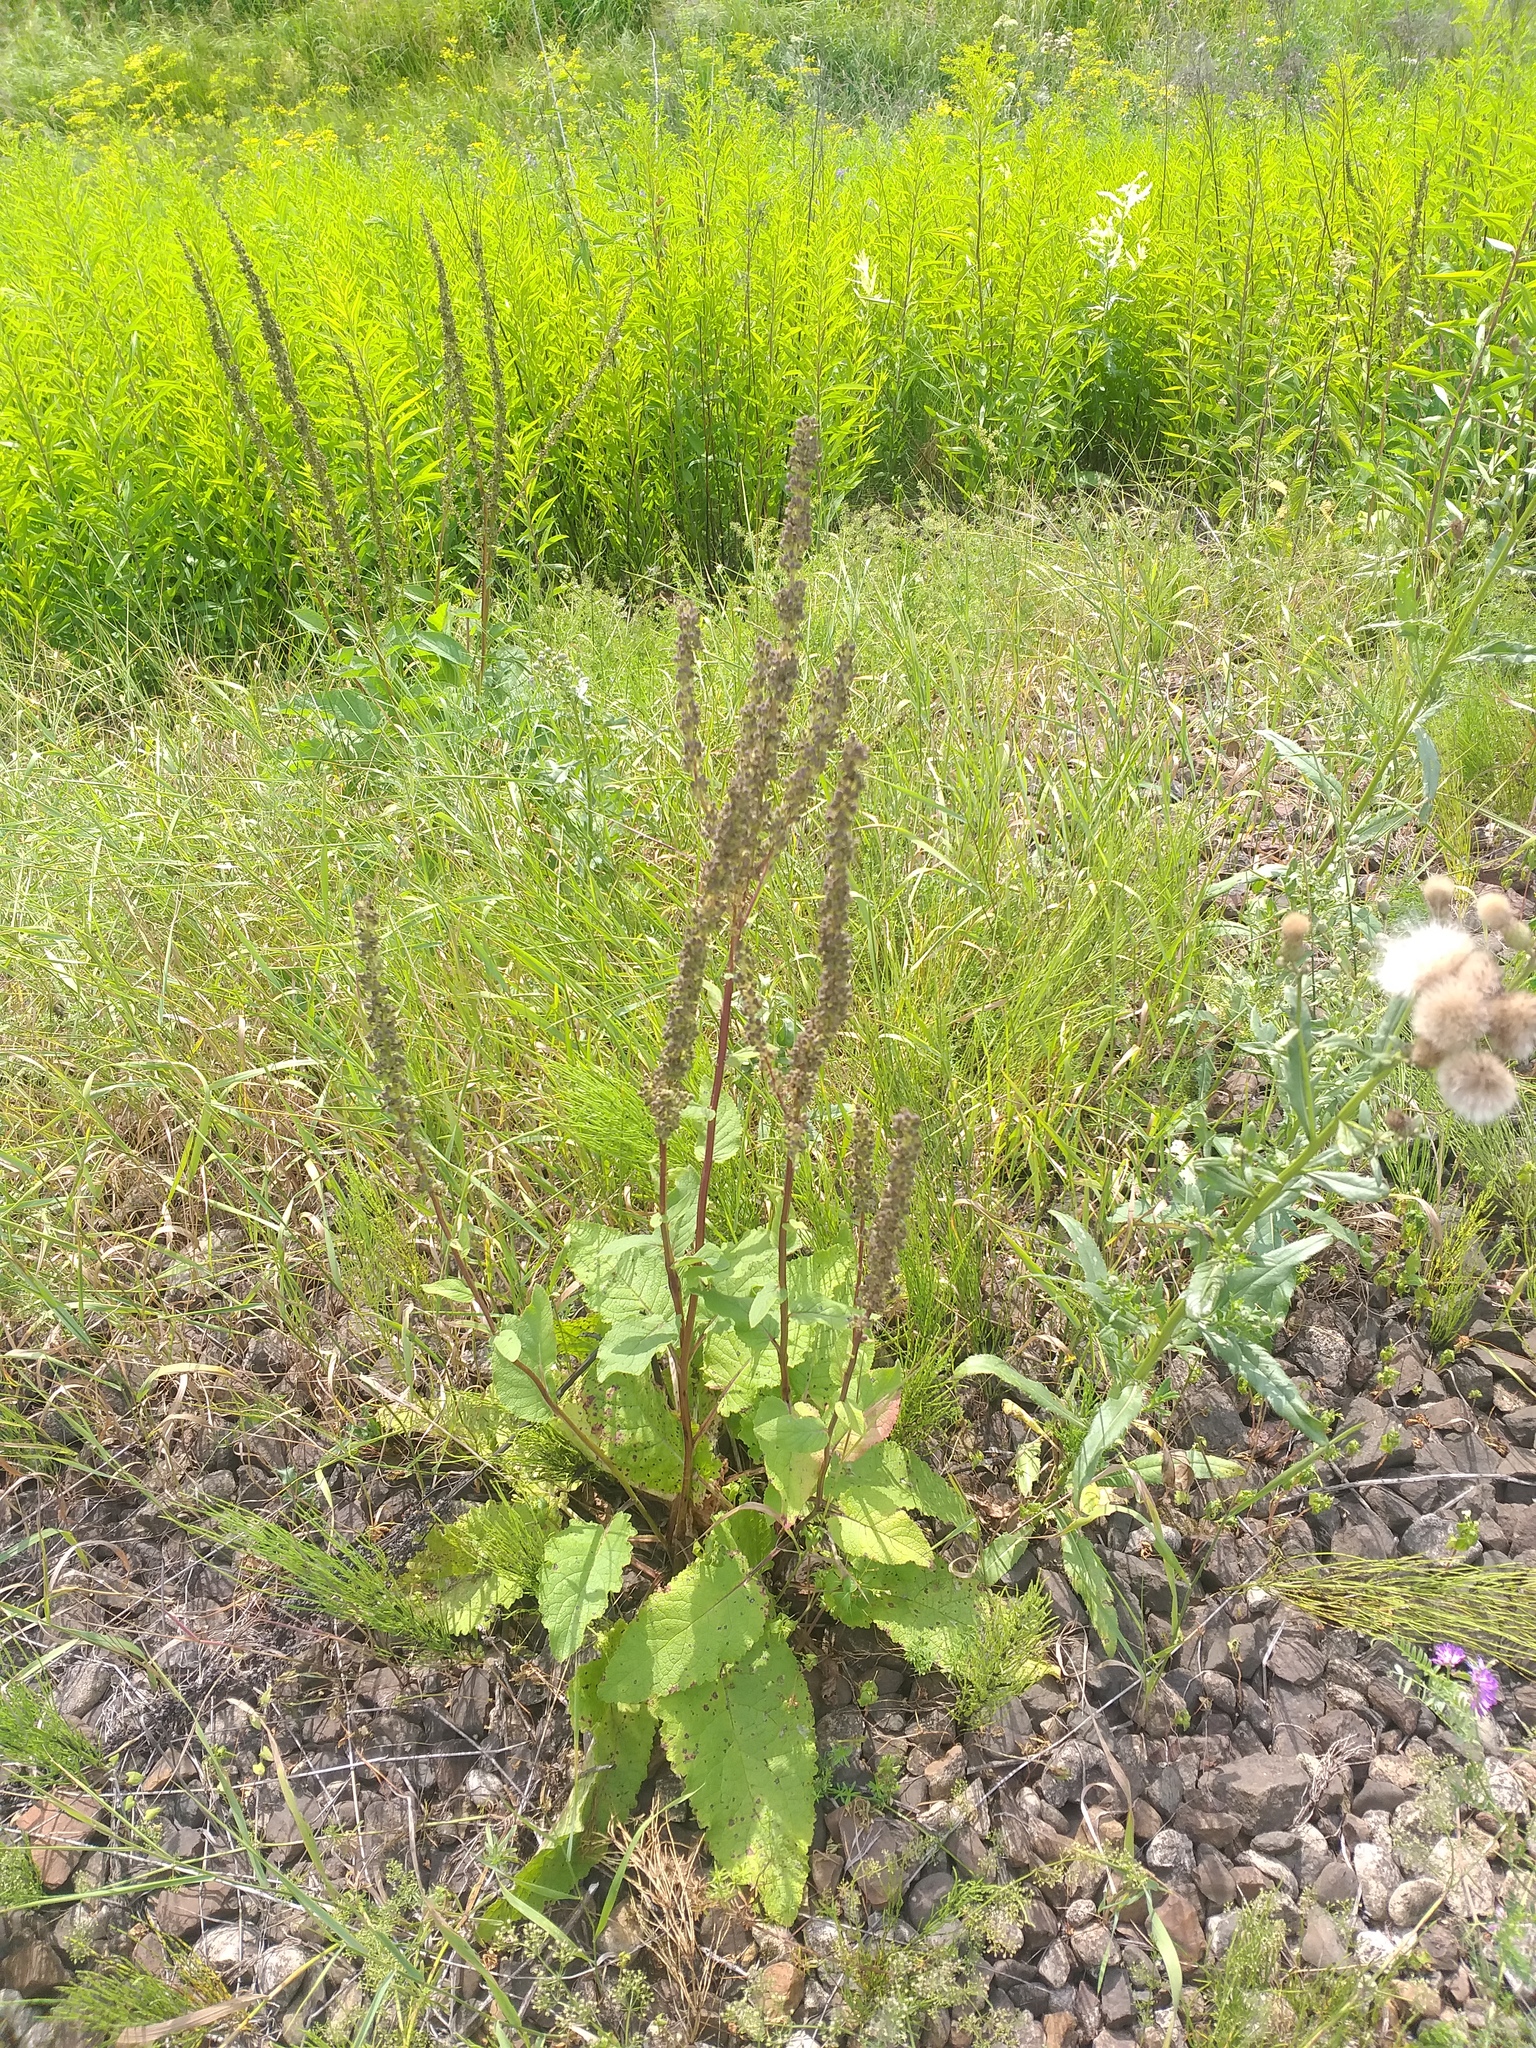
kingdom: Plantae
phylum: Tracheophyta
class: Magnoliopsida
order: Lamiales
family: Scrophulariaceae
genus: Verbascum
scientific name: Verbascum nigrum
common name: Dark mullein
